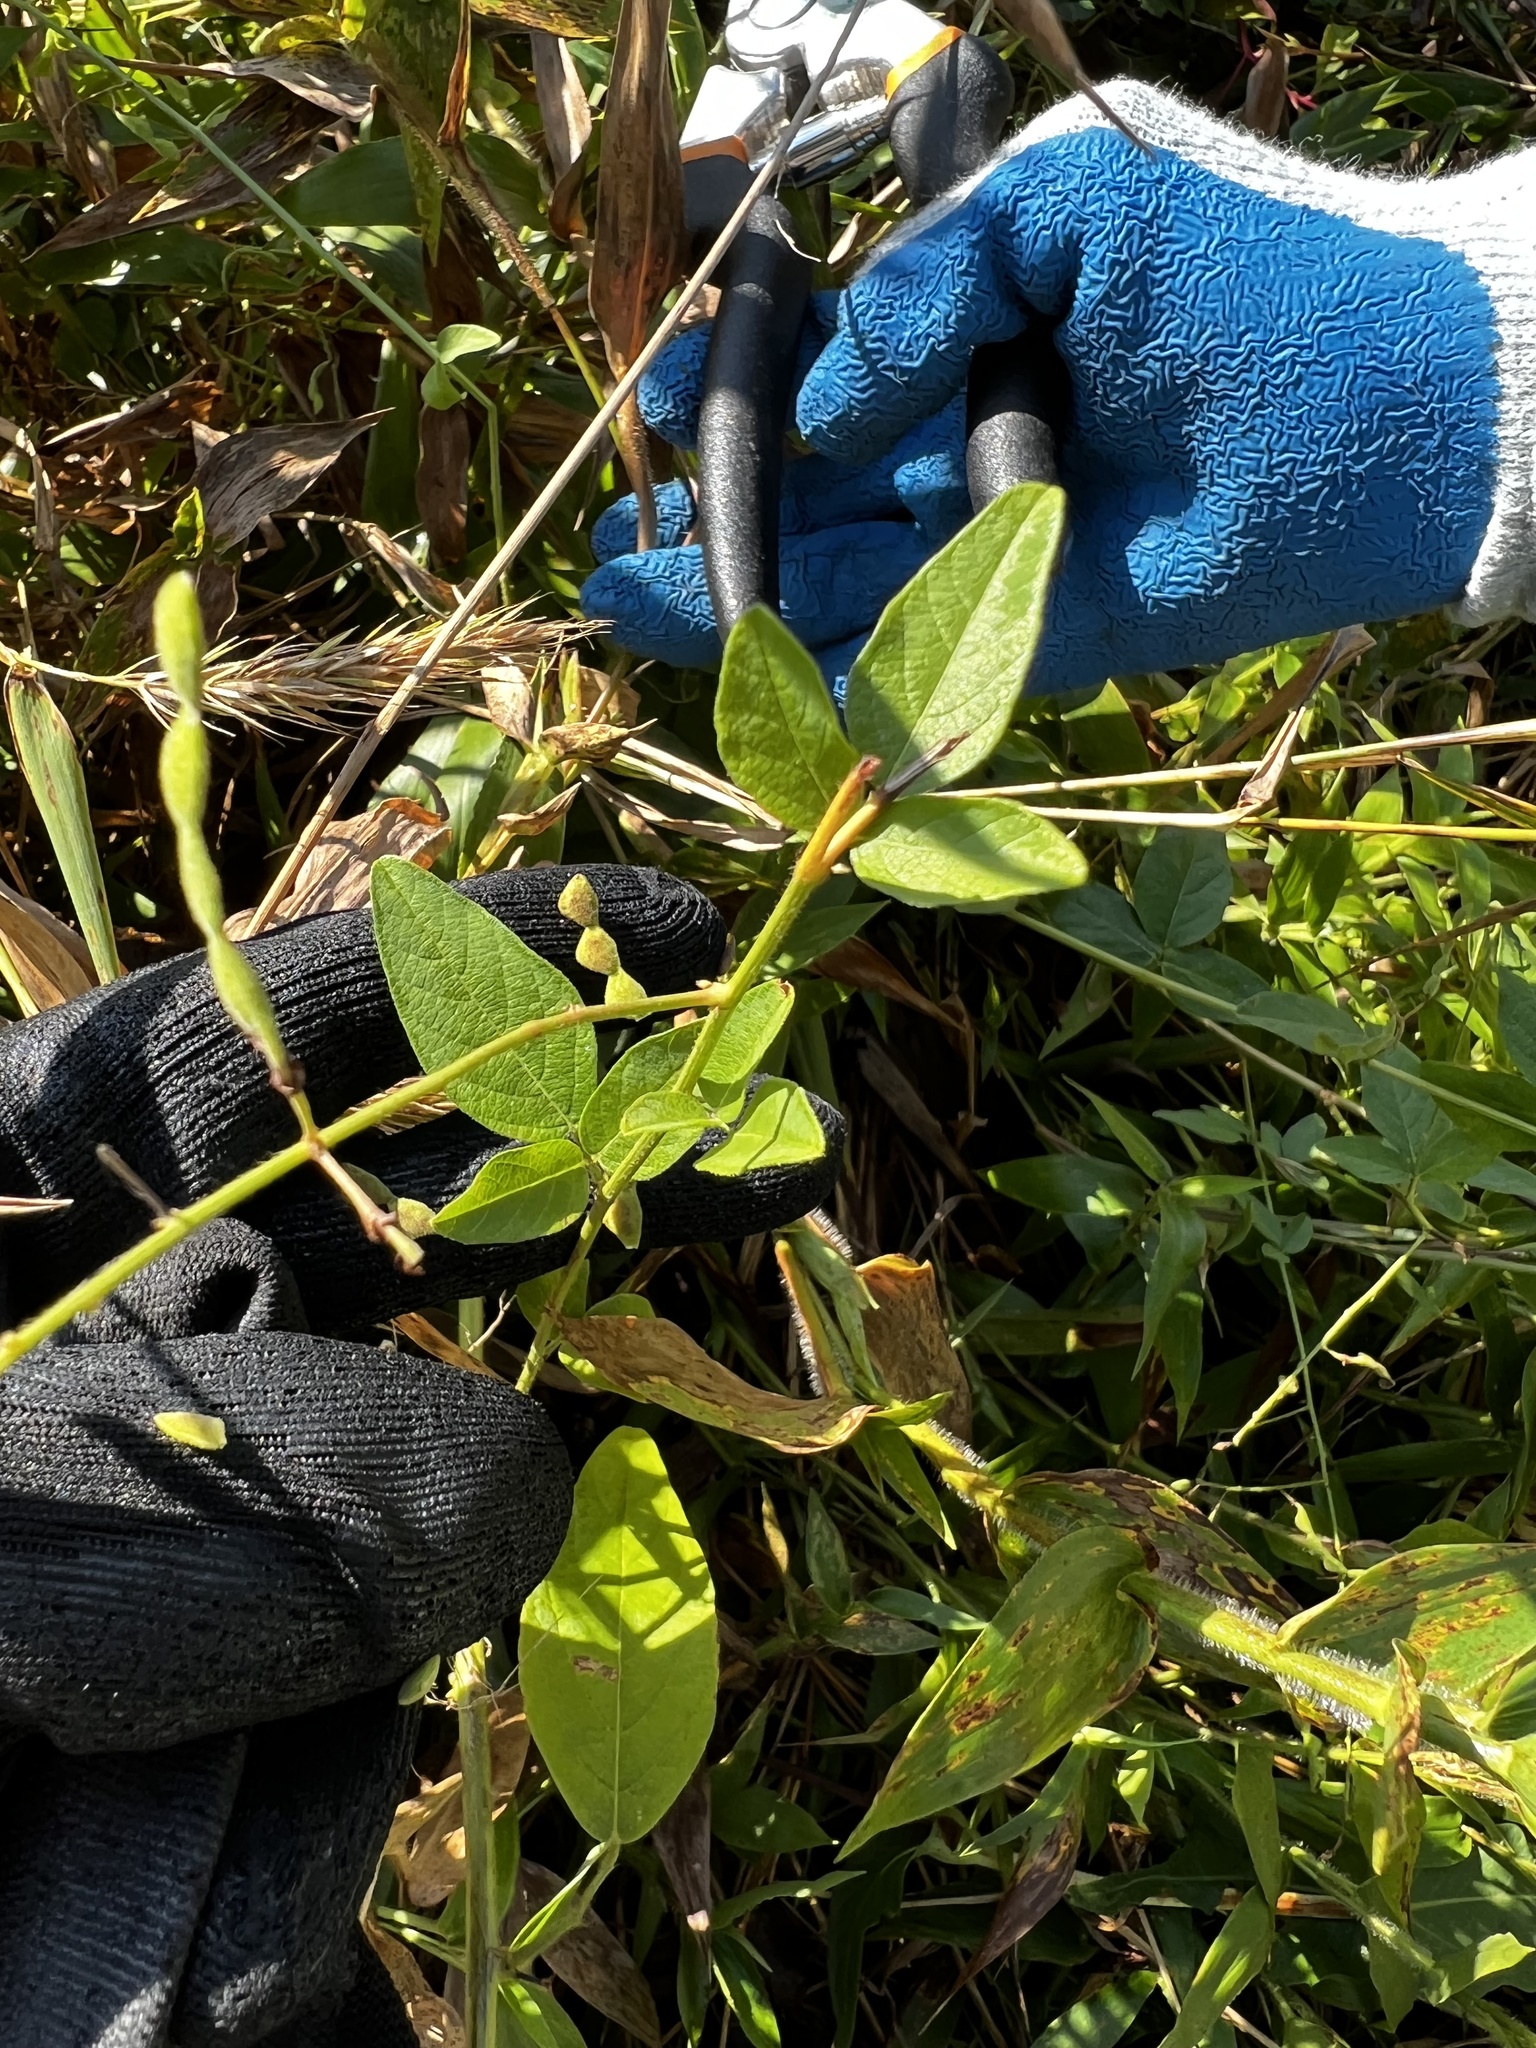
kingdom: Plantae
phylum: Tracheophyta
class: Magnoliopsida
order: Fabales
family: Fabaceae
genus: Desmodium
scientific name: Desmodium glabellum
